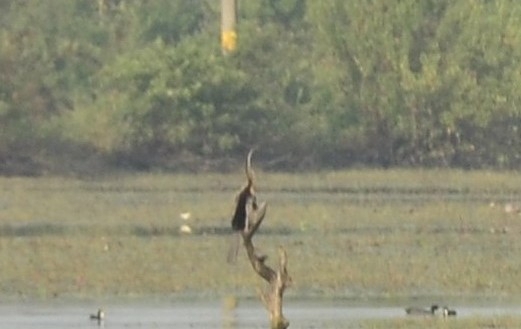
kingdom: Animalia
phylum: Chordata
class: Aves
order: Suliformes
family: Anhingidae
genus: Anhinga
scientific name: Anhinga melanogaster
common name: Oriental darter
